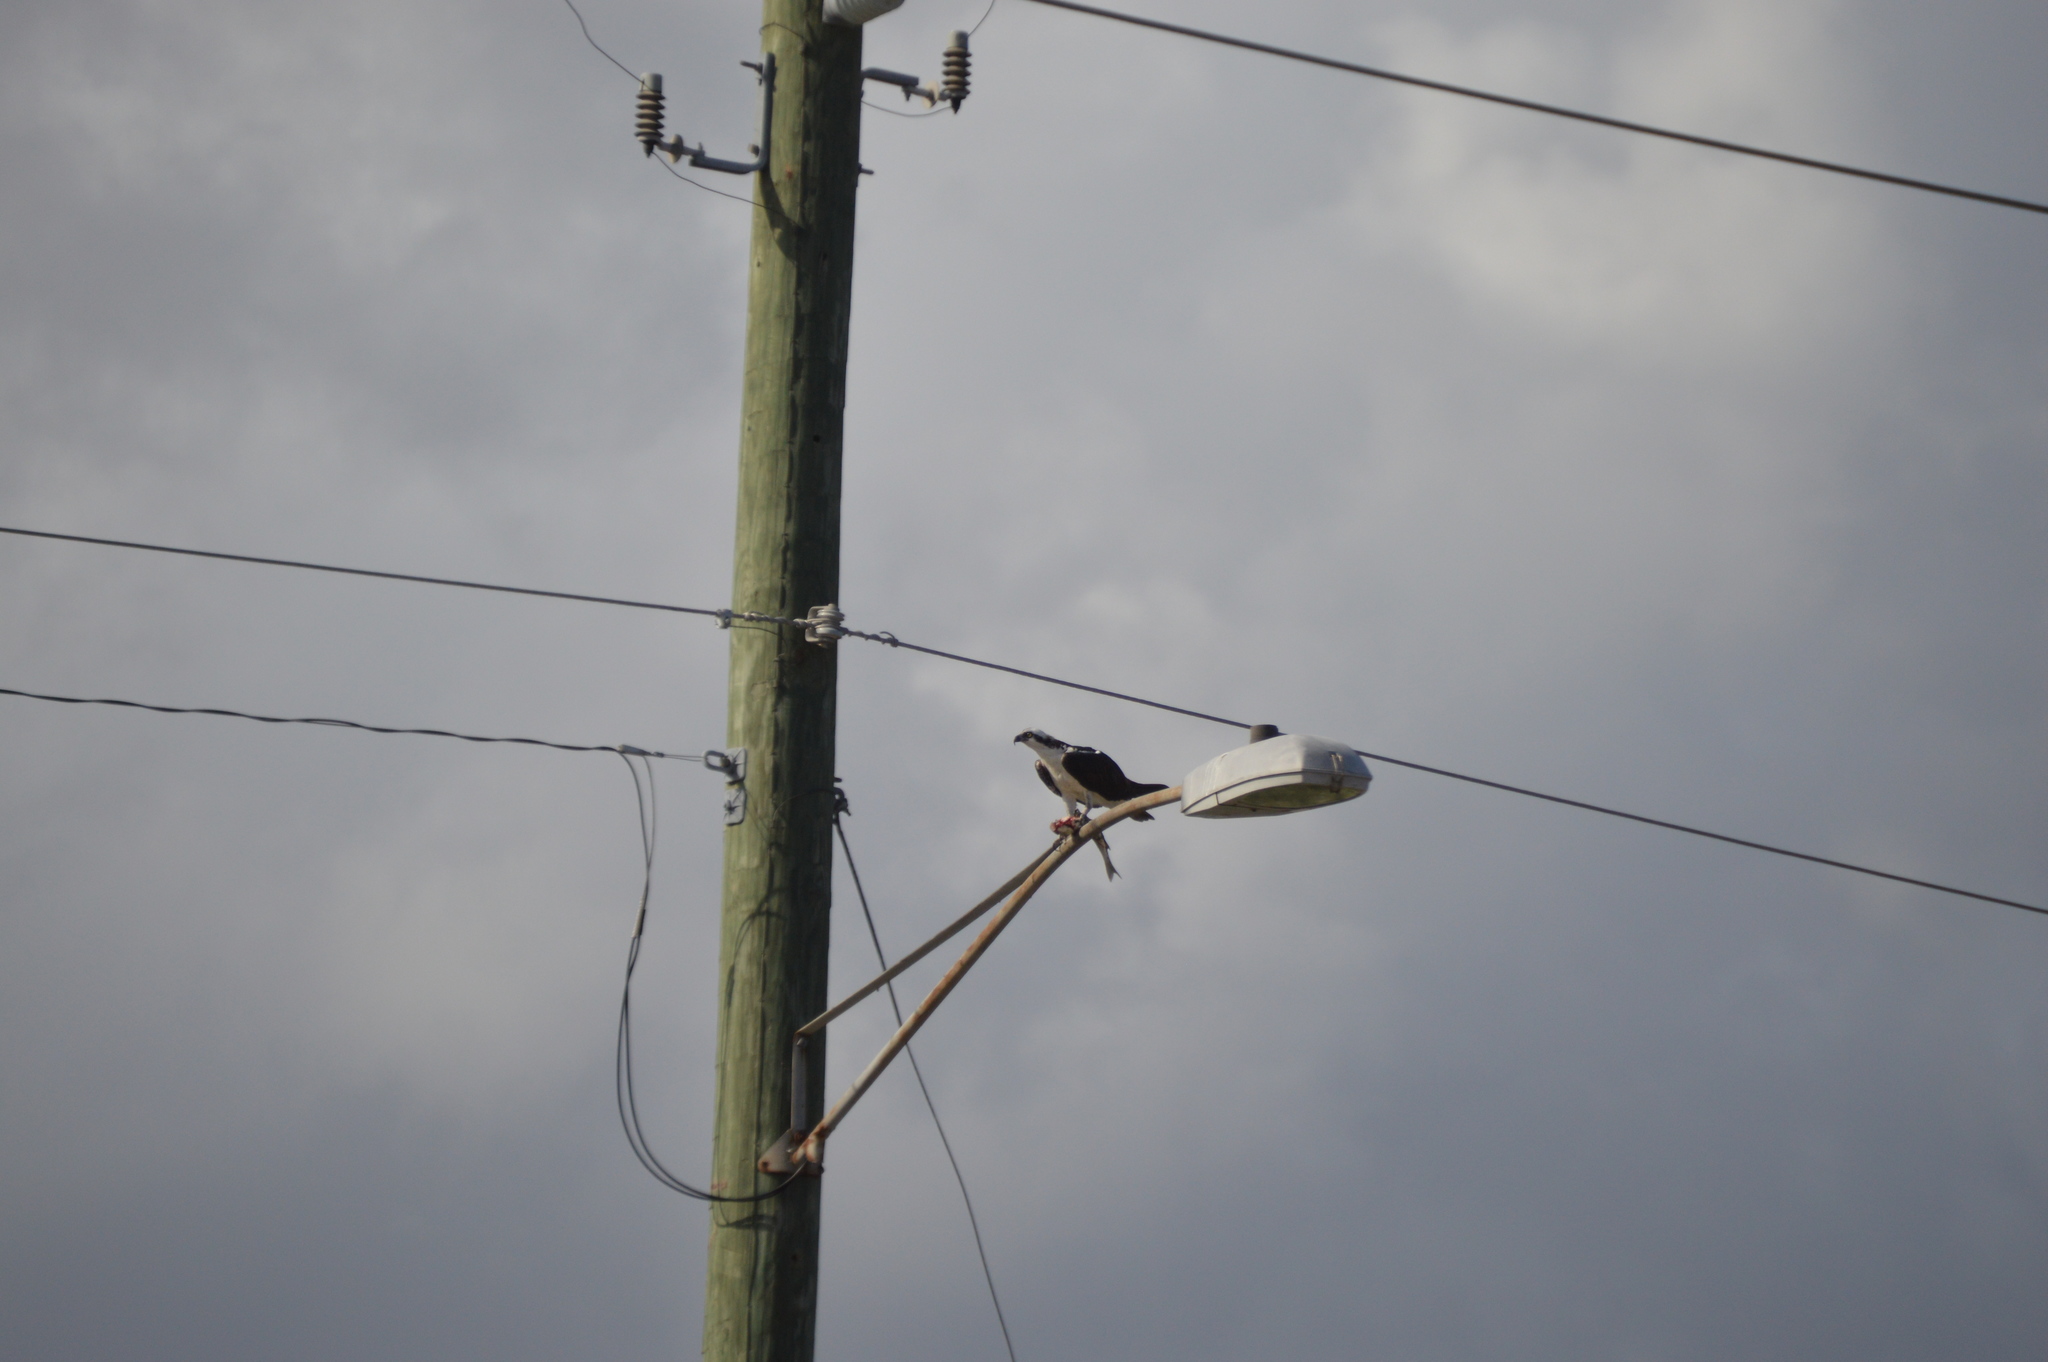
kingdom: Animalia
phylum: Chordata
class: Aves
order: Accipitriformes
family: Pandionidae
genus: Pandion
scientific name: Pandion haliaetus
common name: Osprey
